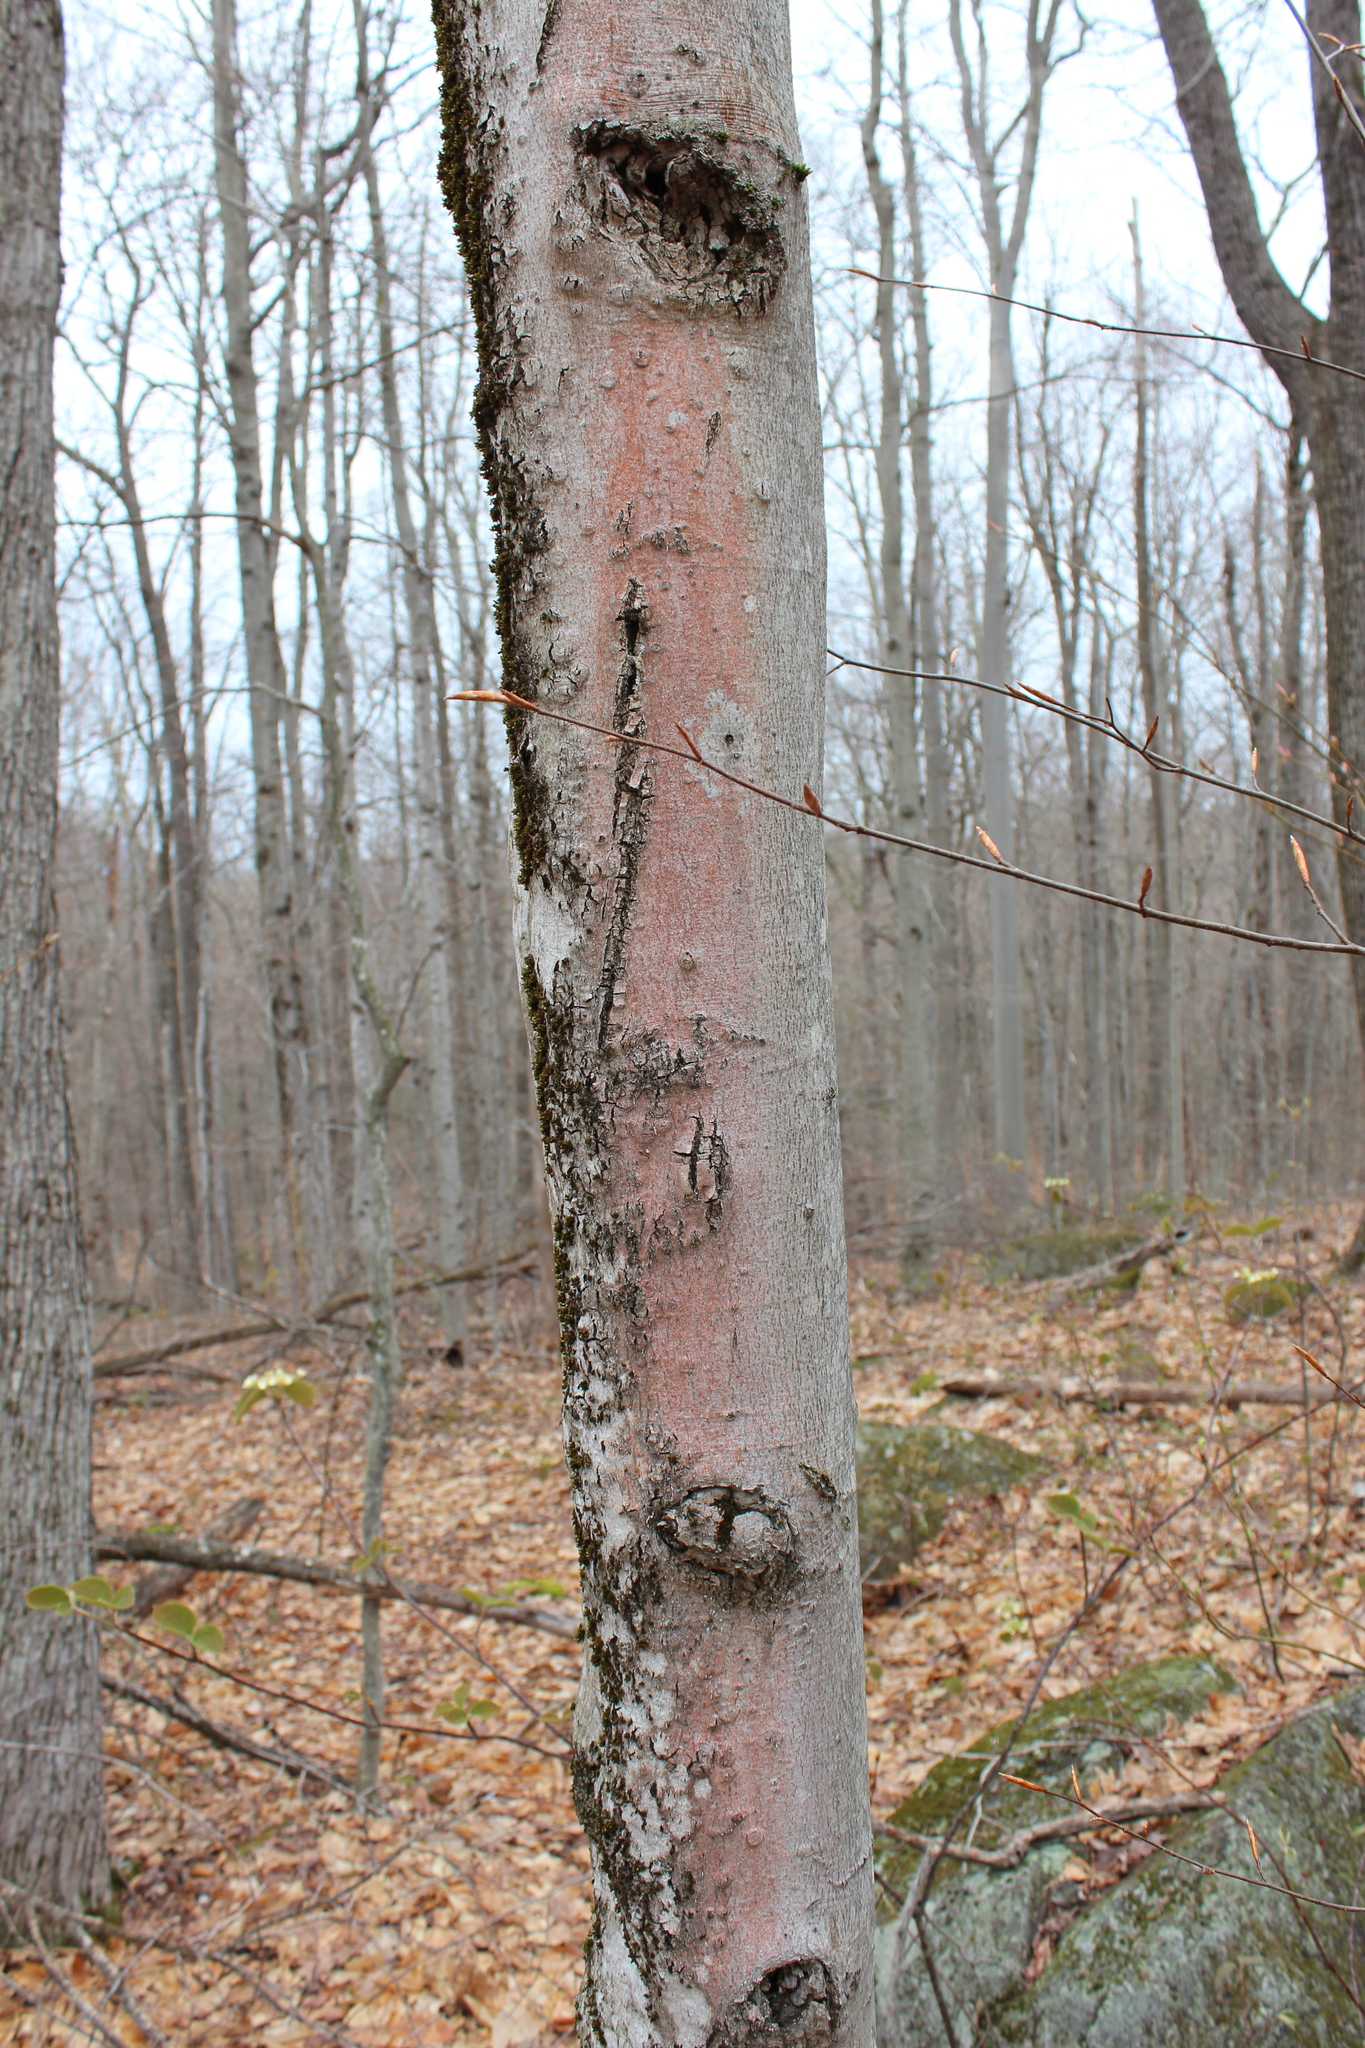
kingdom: Plantae
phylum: Tracheophyta
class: Magnoliopsida
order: Fagales
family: Fagaceae
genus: Fagus
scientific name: Fagus grandifolia
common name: American beech
